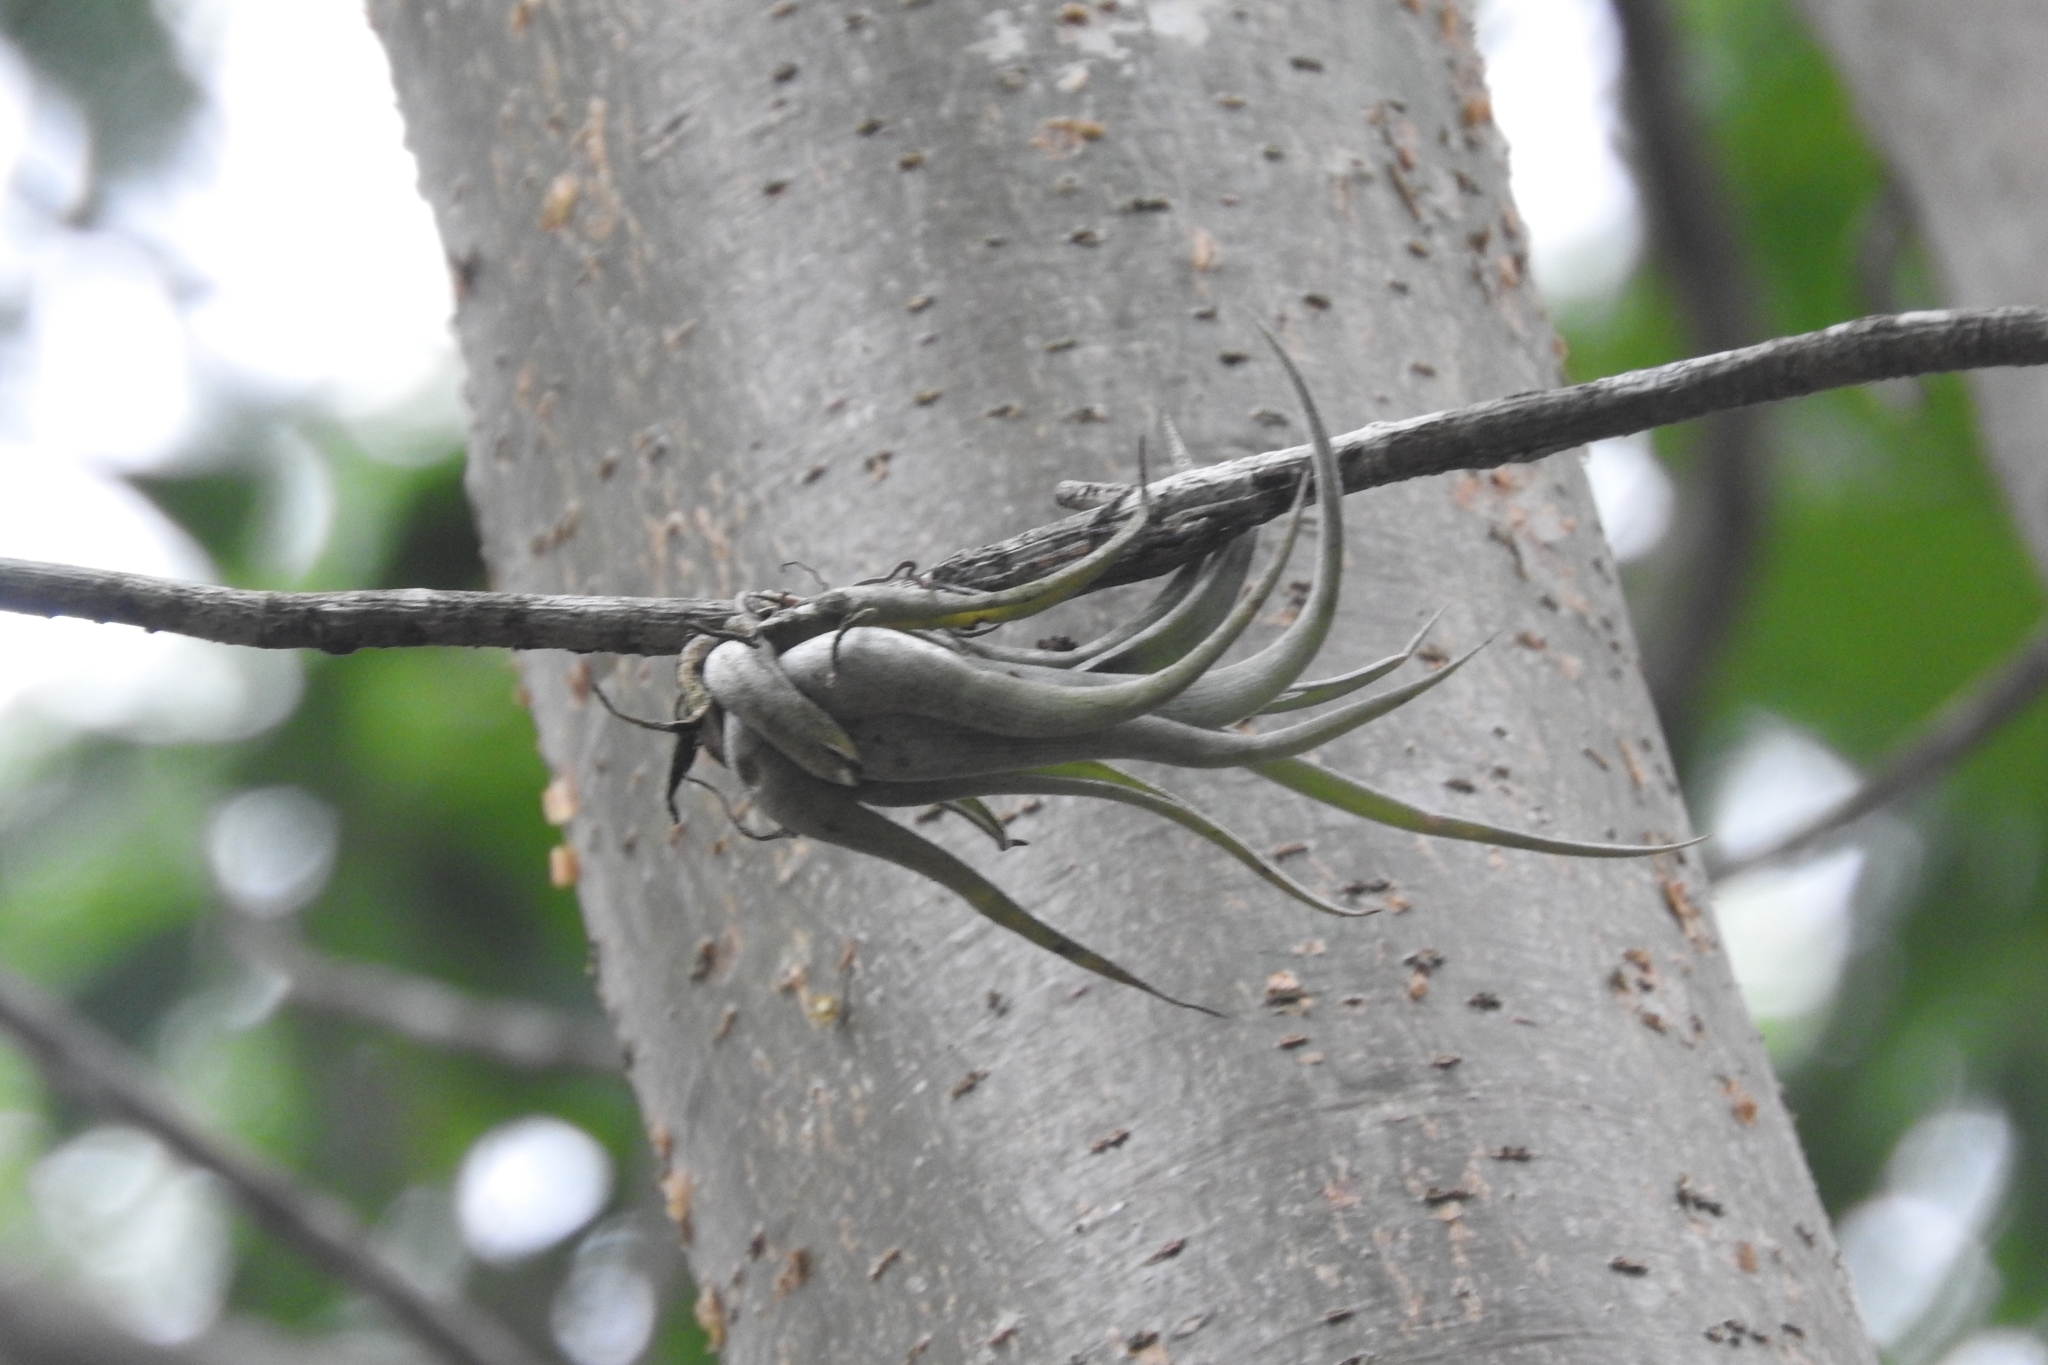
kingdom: Plantae
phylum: Tracheophyta
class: Liliopsida
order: Poales
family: Bromeliaceae
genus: Tillandsia
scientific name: Tillandsia paucifolia
